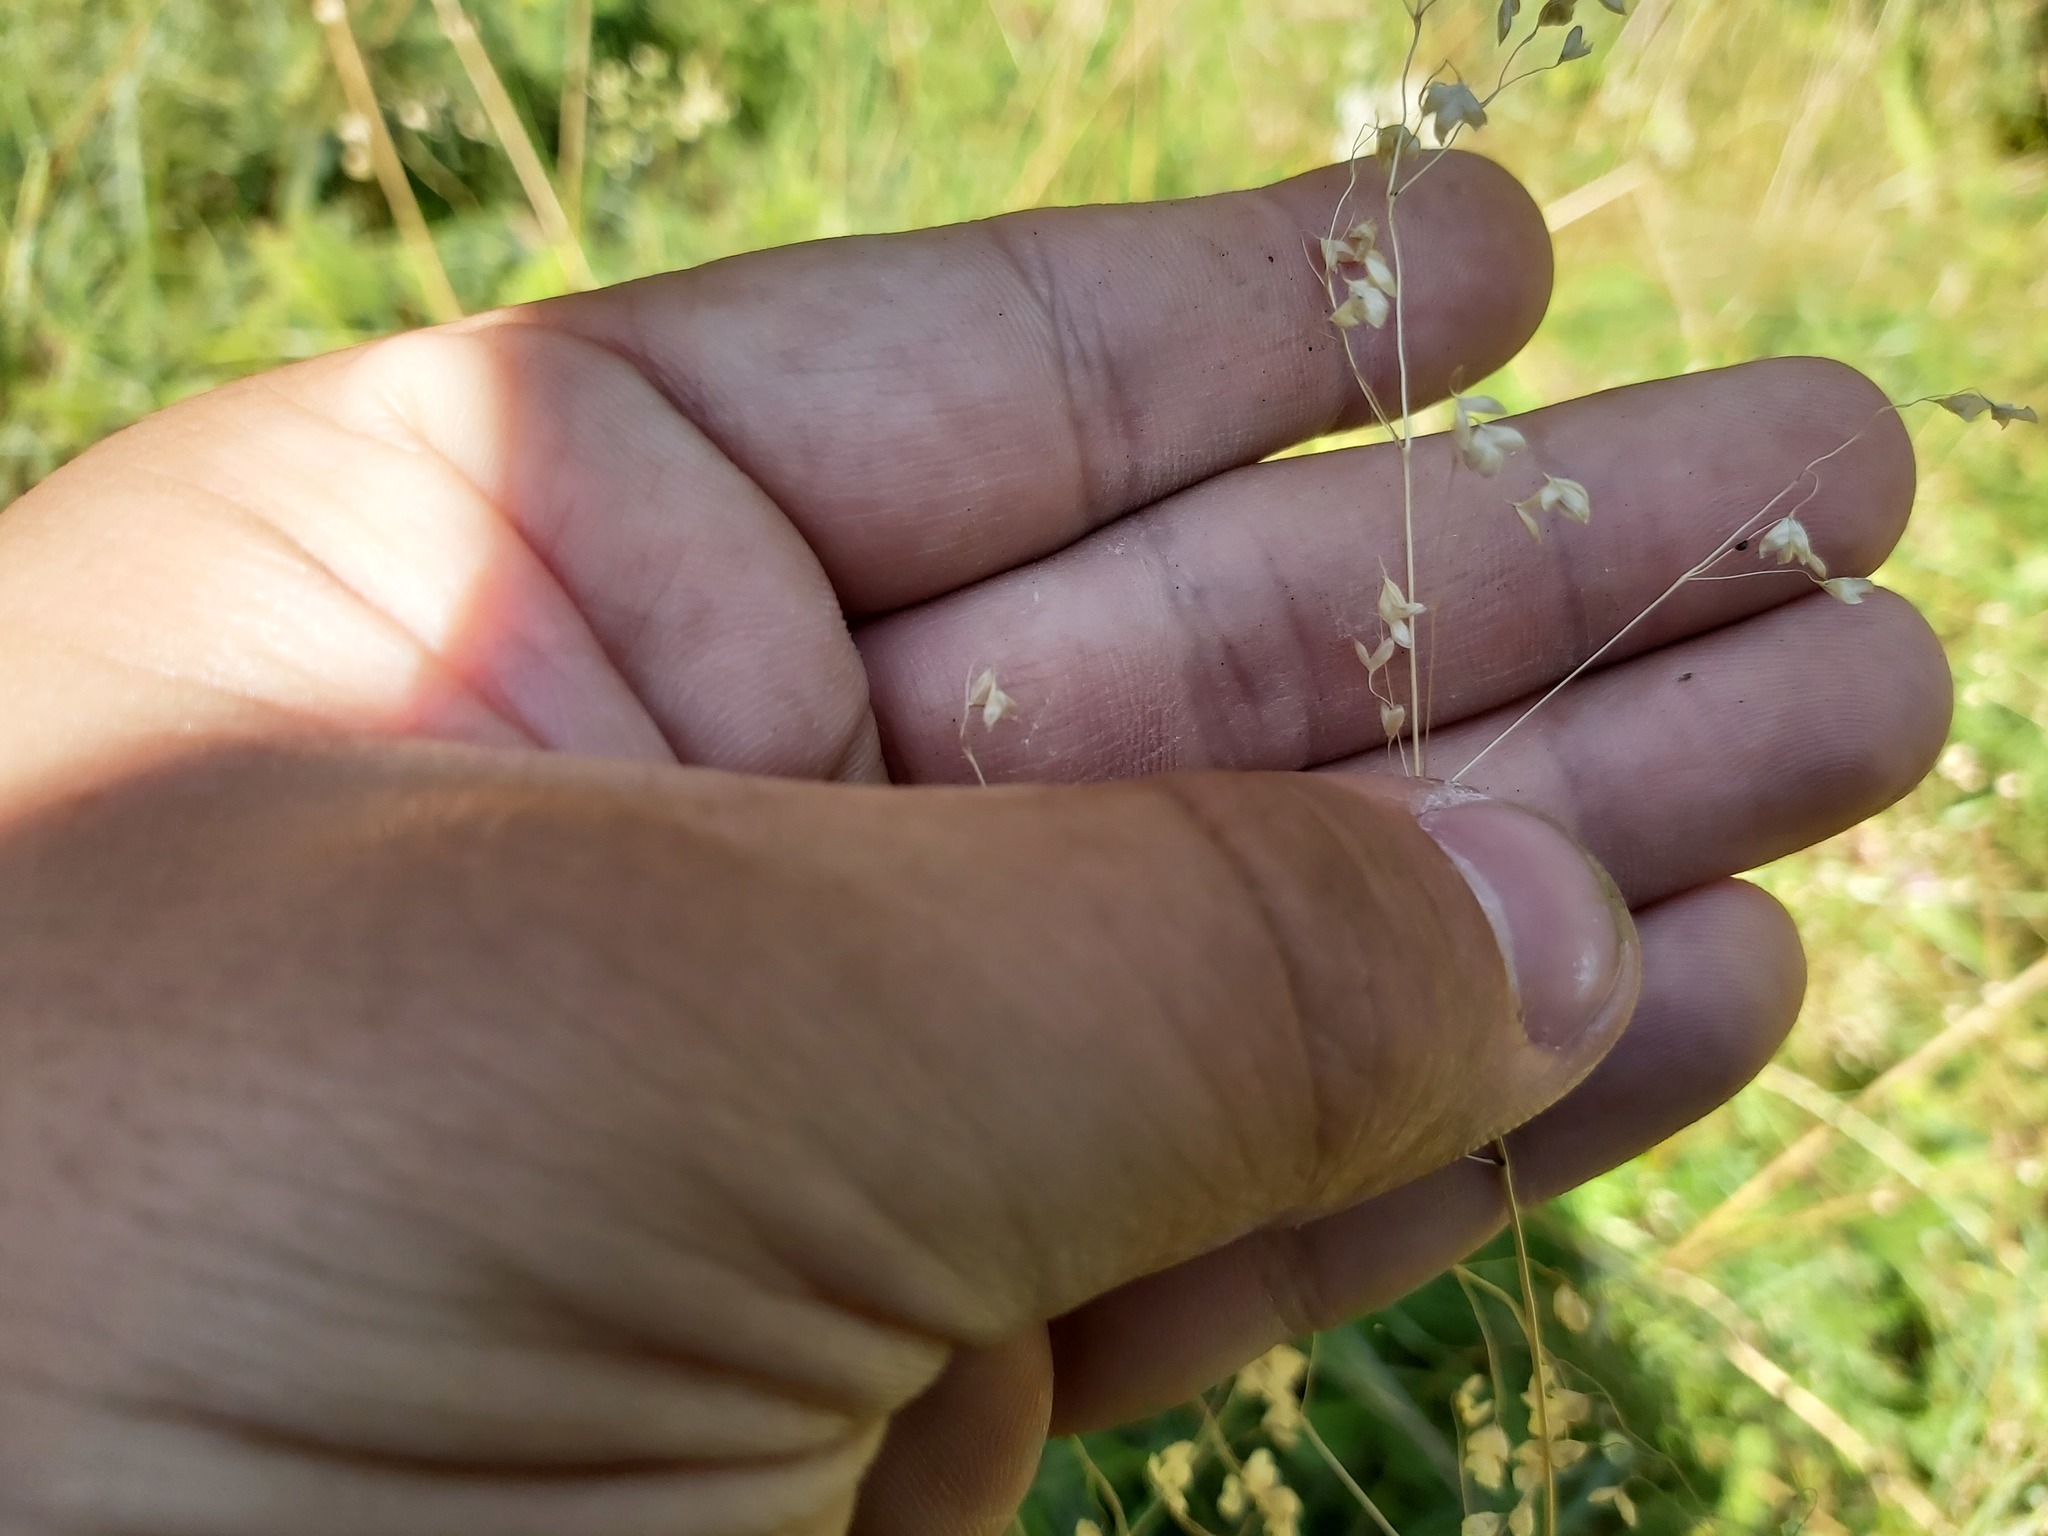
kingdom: Plantae
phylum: Tracheophyta
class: Liliopsida
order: Poales
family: Poaceae
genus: Briza
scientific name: Briza media
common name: Quaking grass
